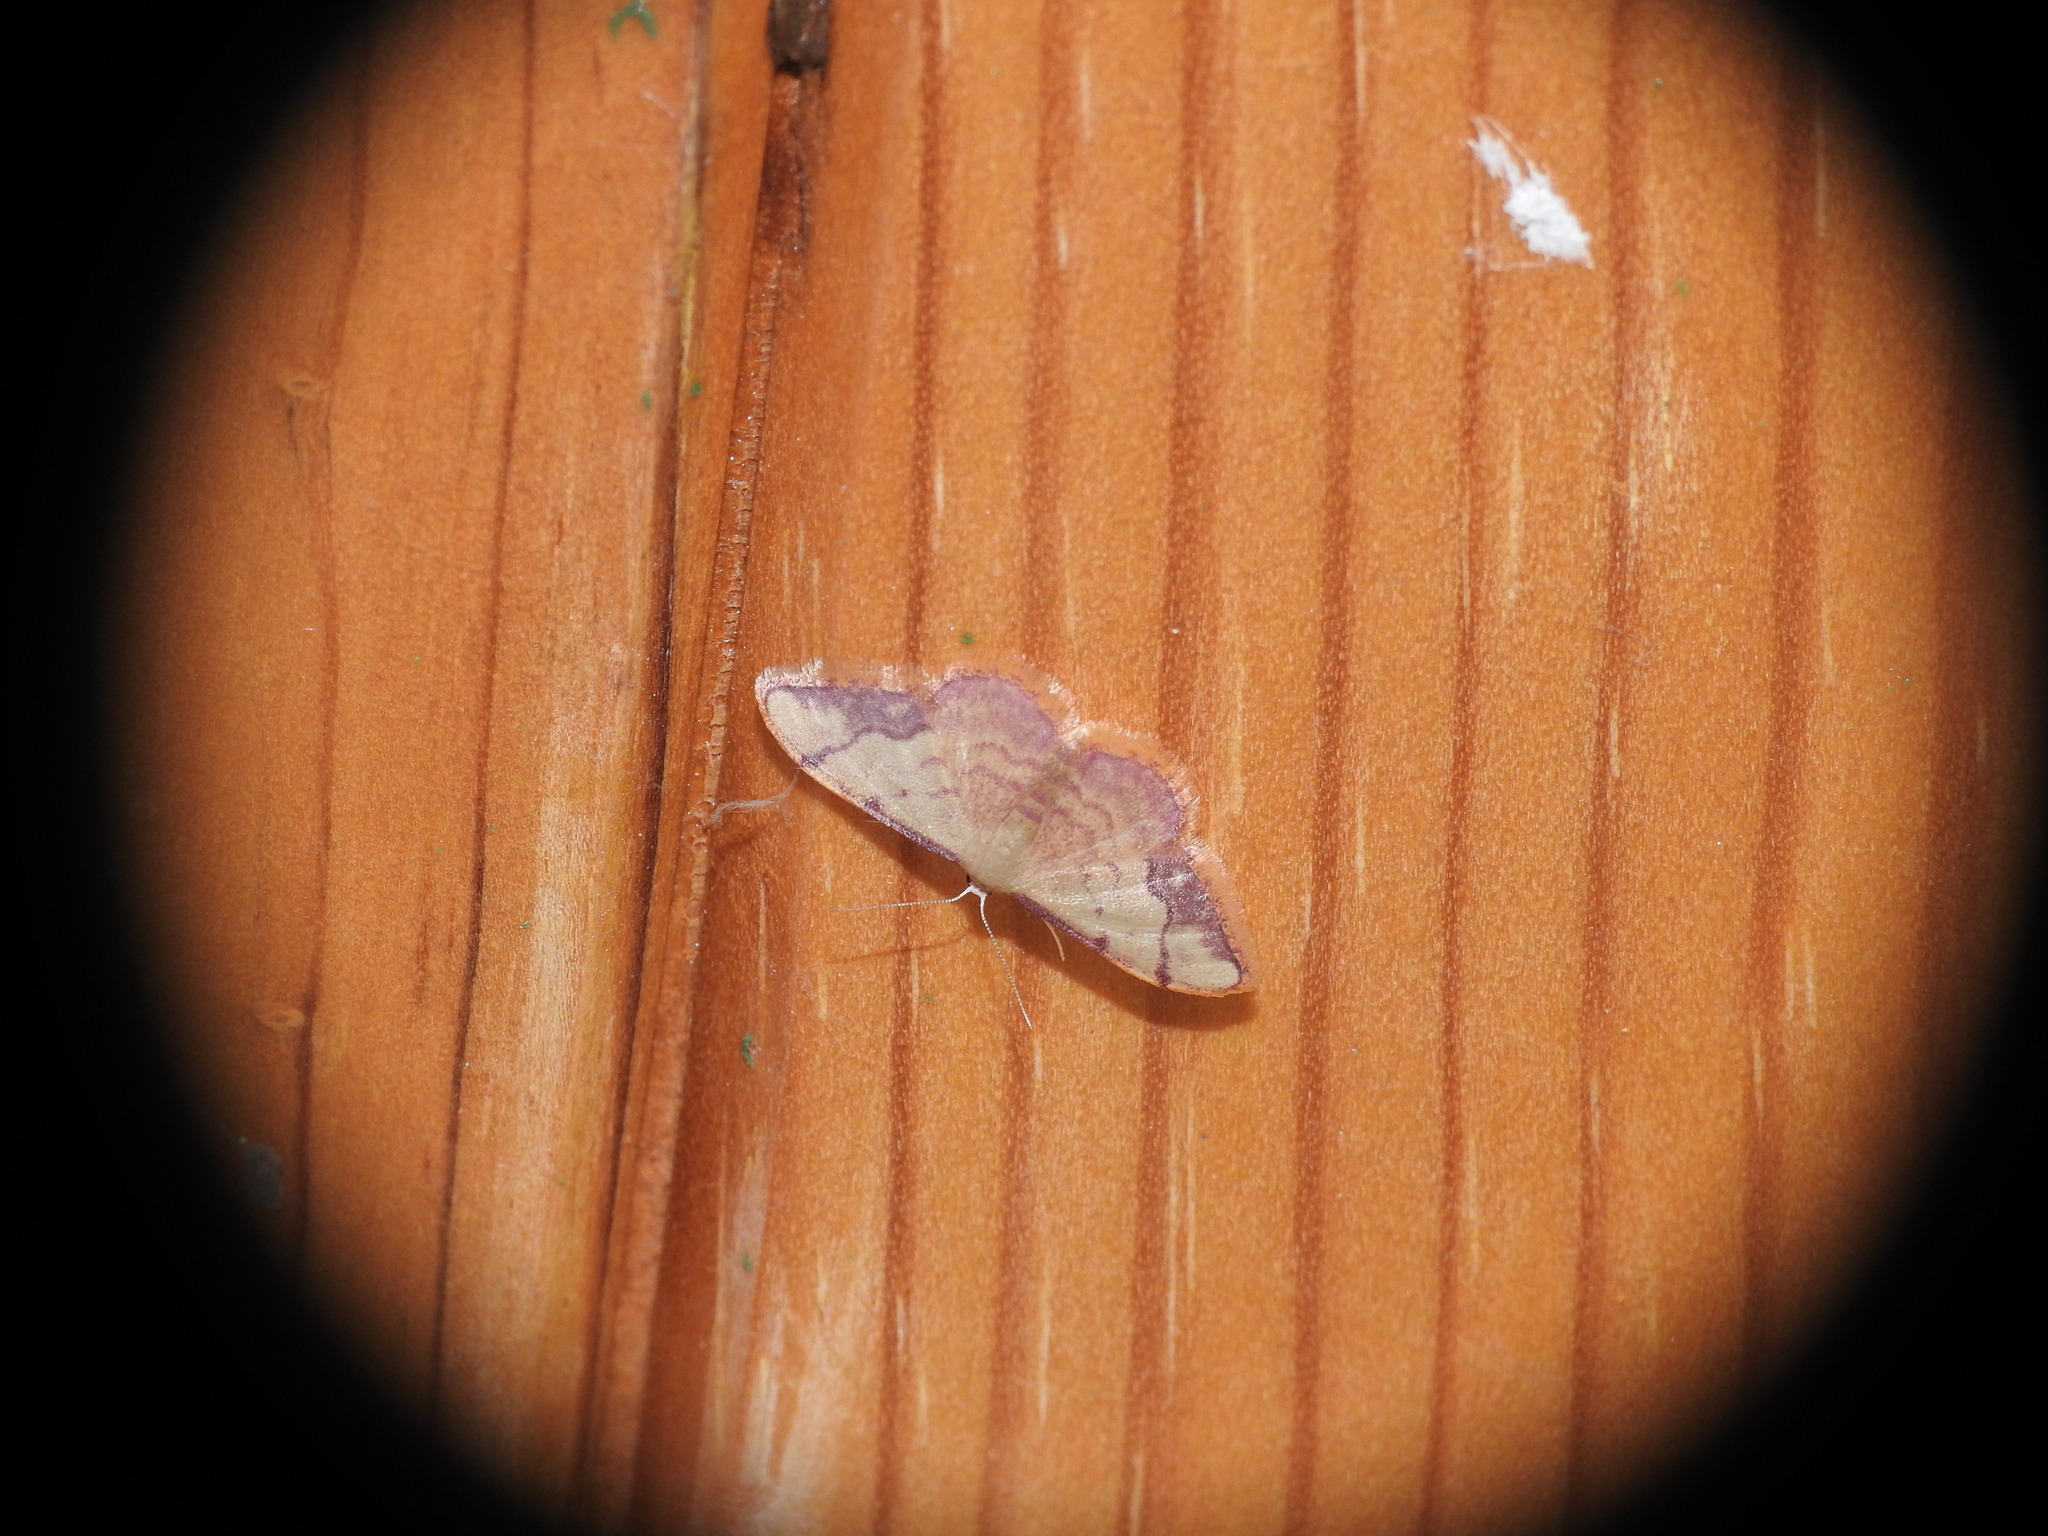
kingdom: Animalia
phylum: Arthropoda
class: Insecta
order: Lepidoptera
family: Geometridae
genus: Idaea
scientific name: Idaea ostrinaria
